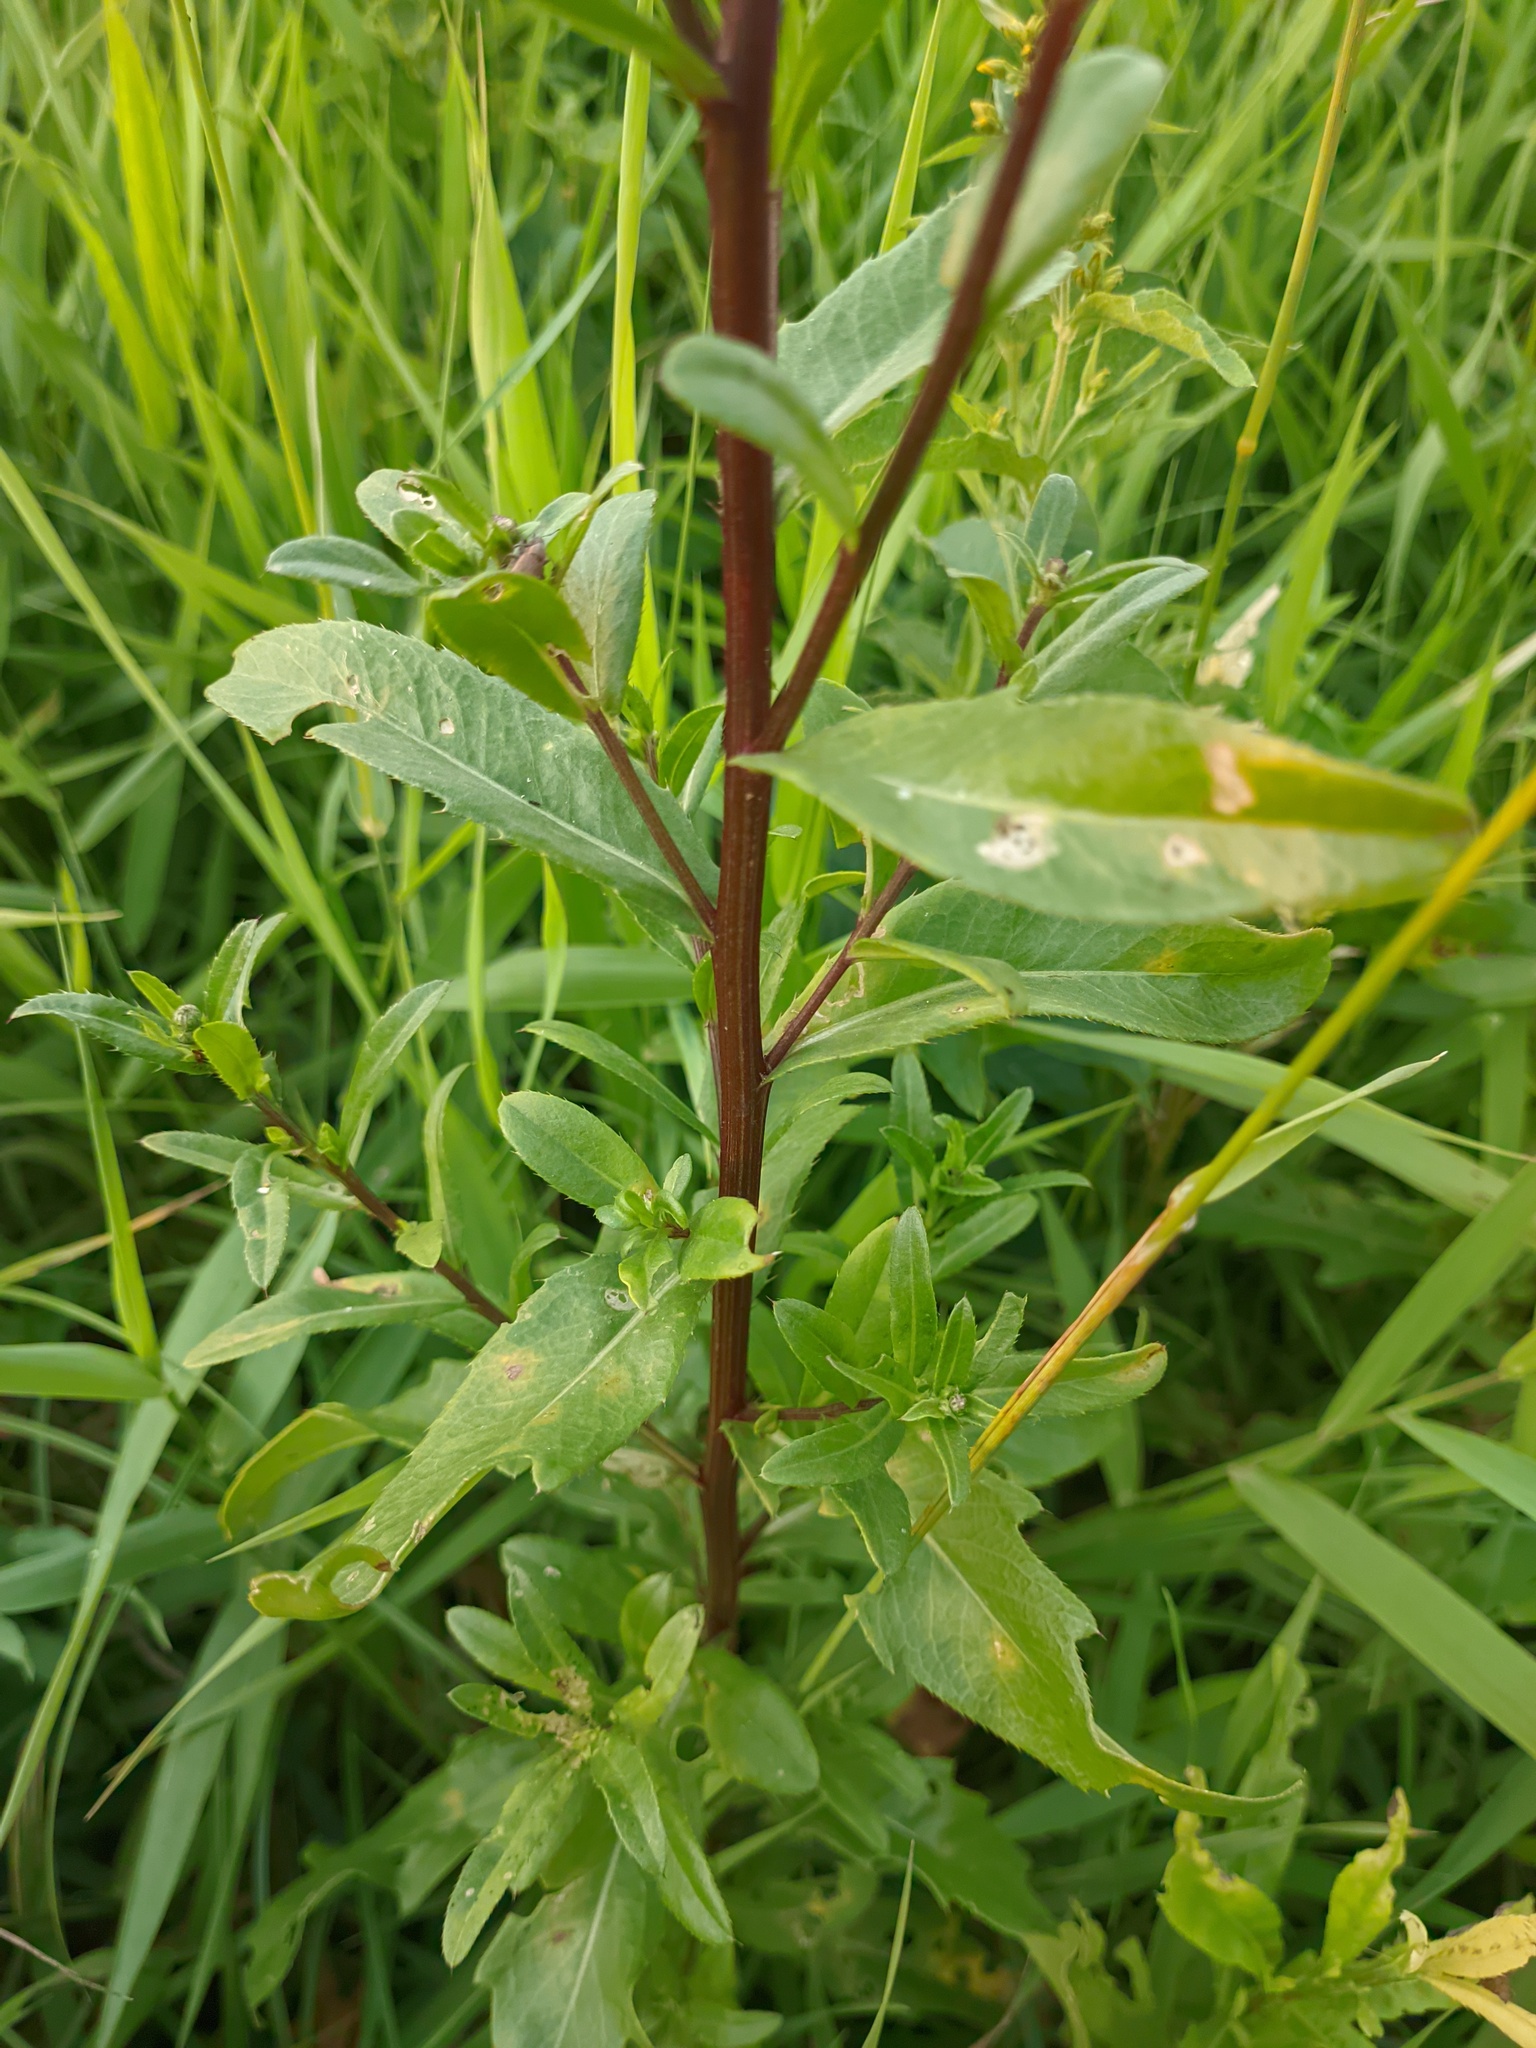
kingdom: Plantae
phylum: Tracheophyta
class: Magnoliopsida
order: Asterales
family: Asteraceae
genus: Cirsium
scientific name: Cirsium arvense
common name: Creeping thistle
